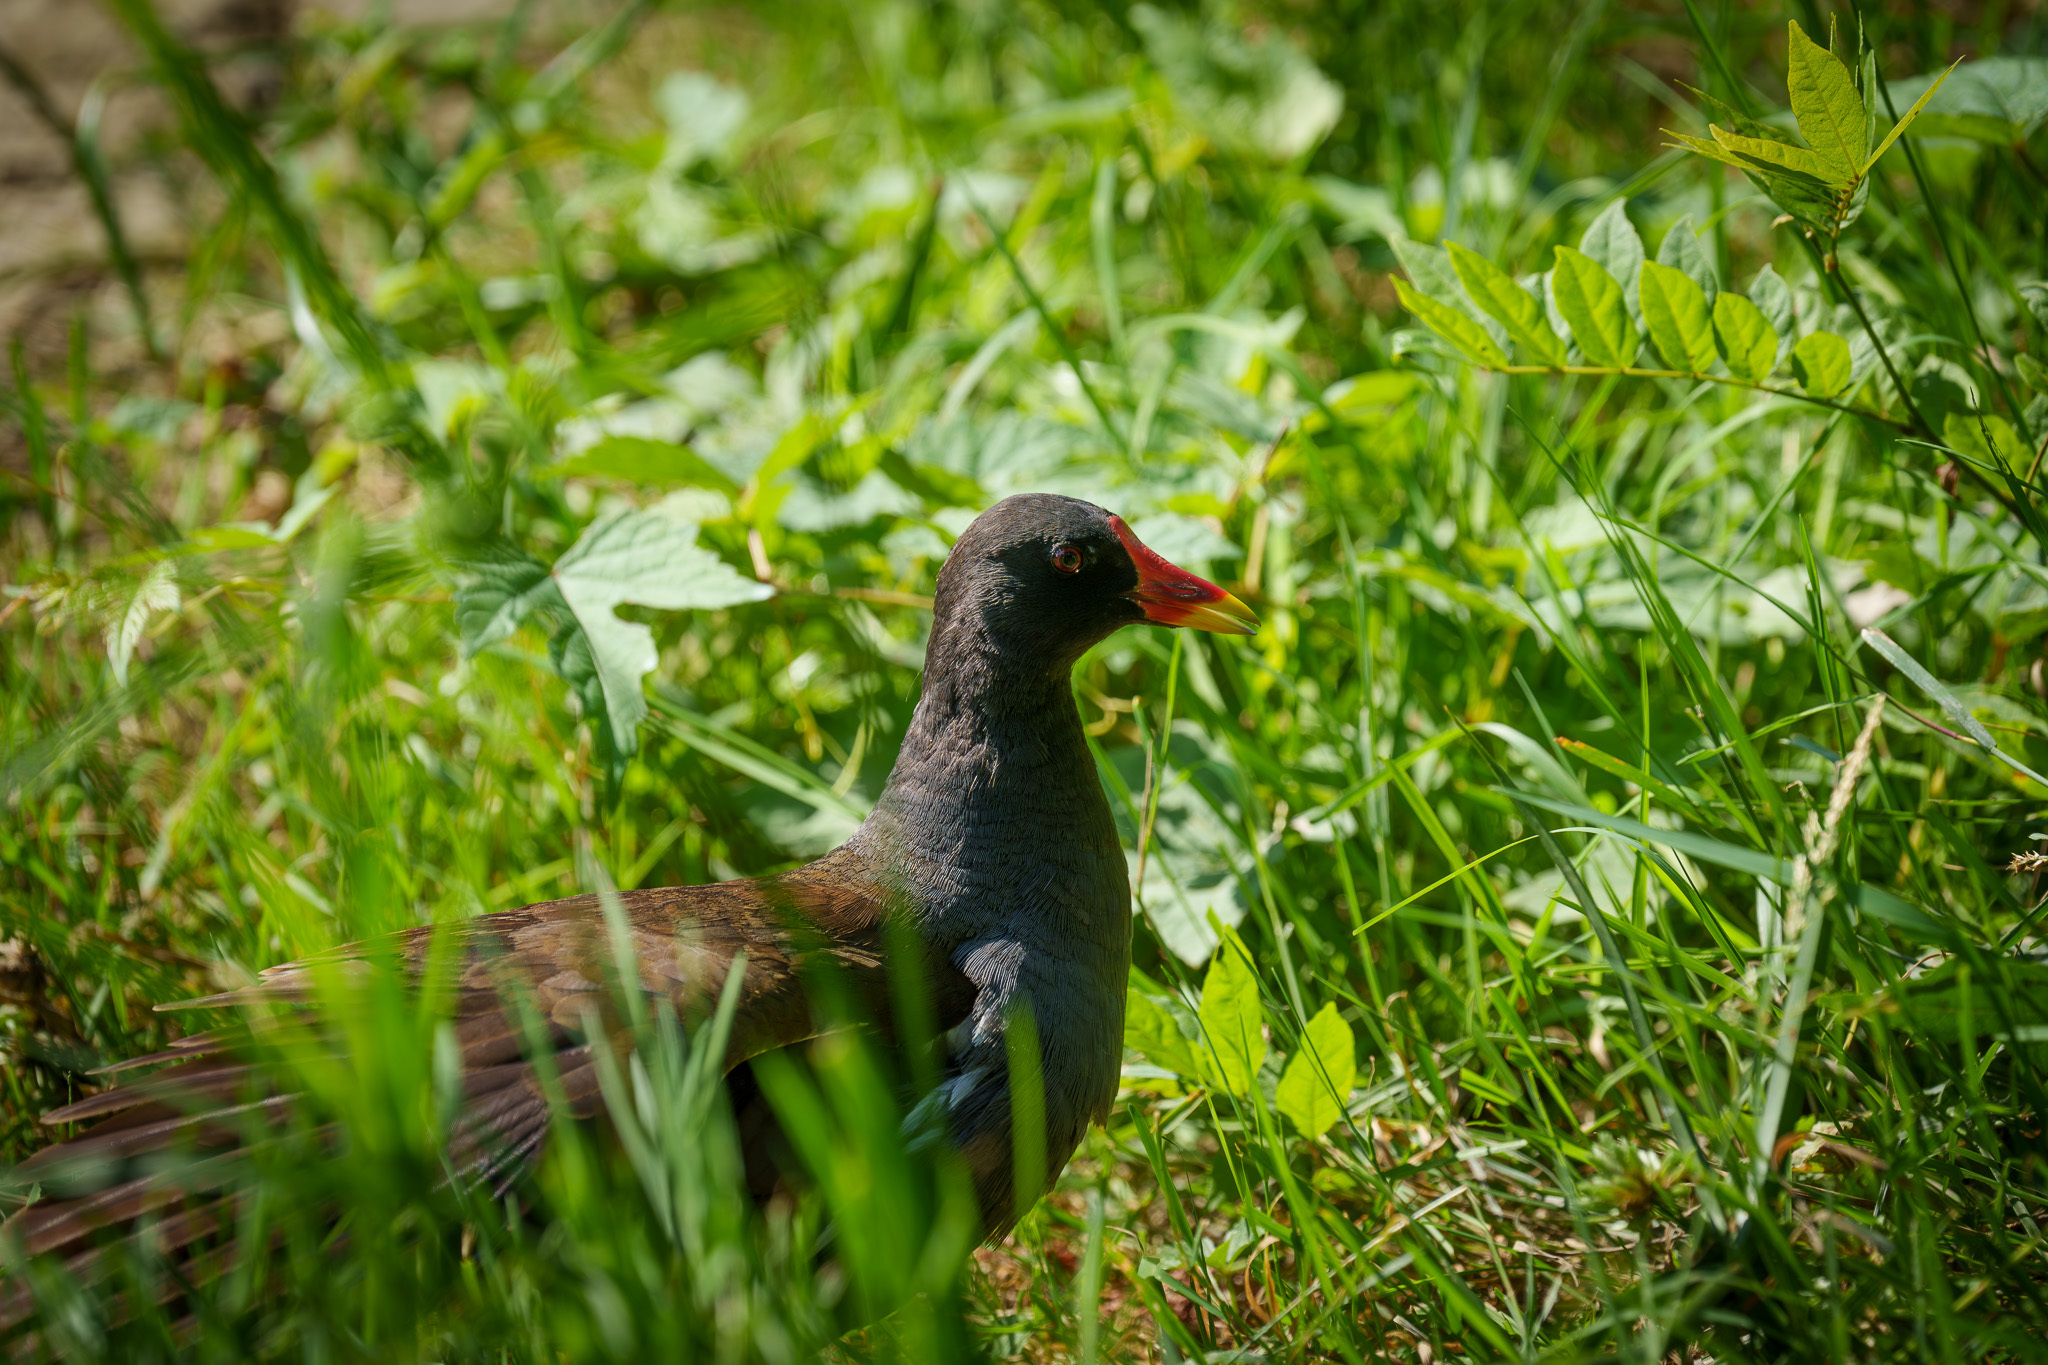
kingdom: Animalia
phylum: Chordata
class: Aves
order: Gruiformes
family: Rallidae
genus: Gallinula
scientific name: Gallinula chloropus
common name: Common moorhen
